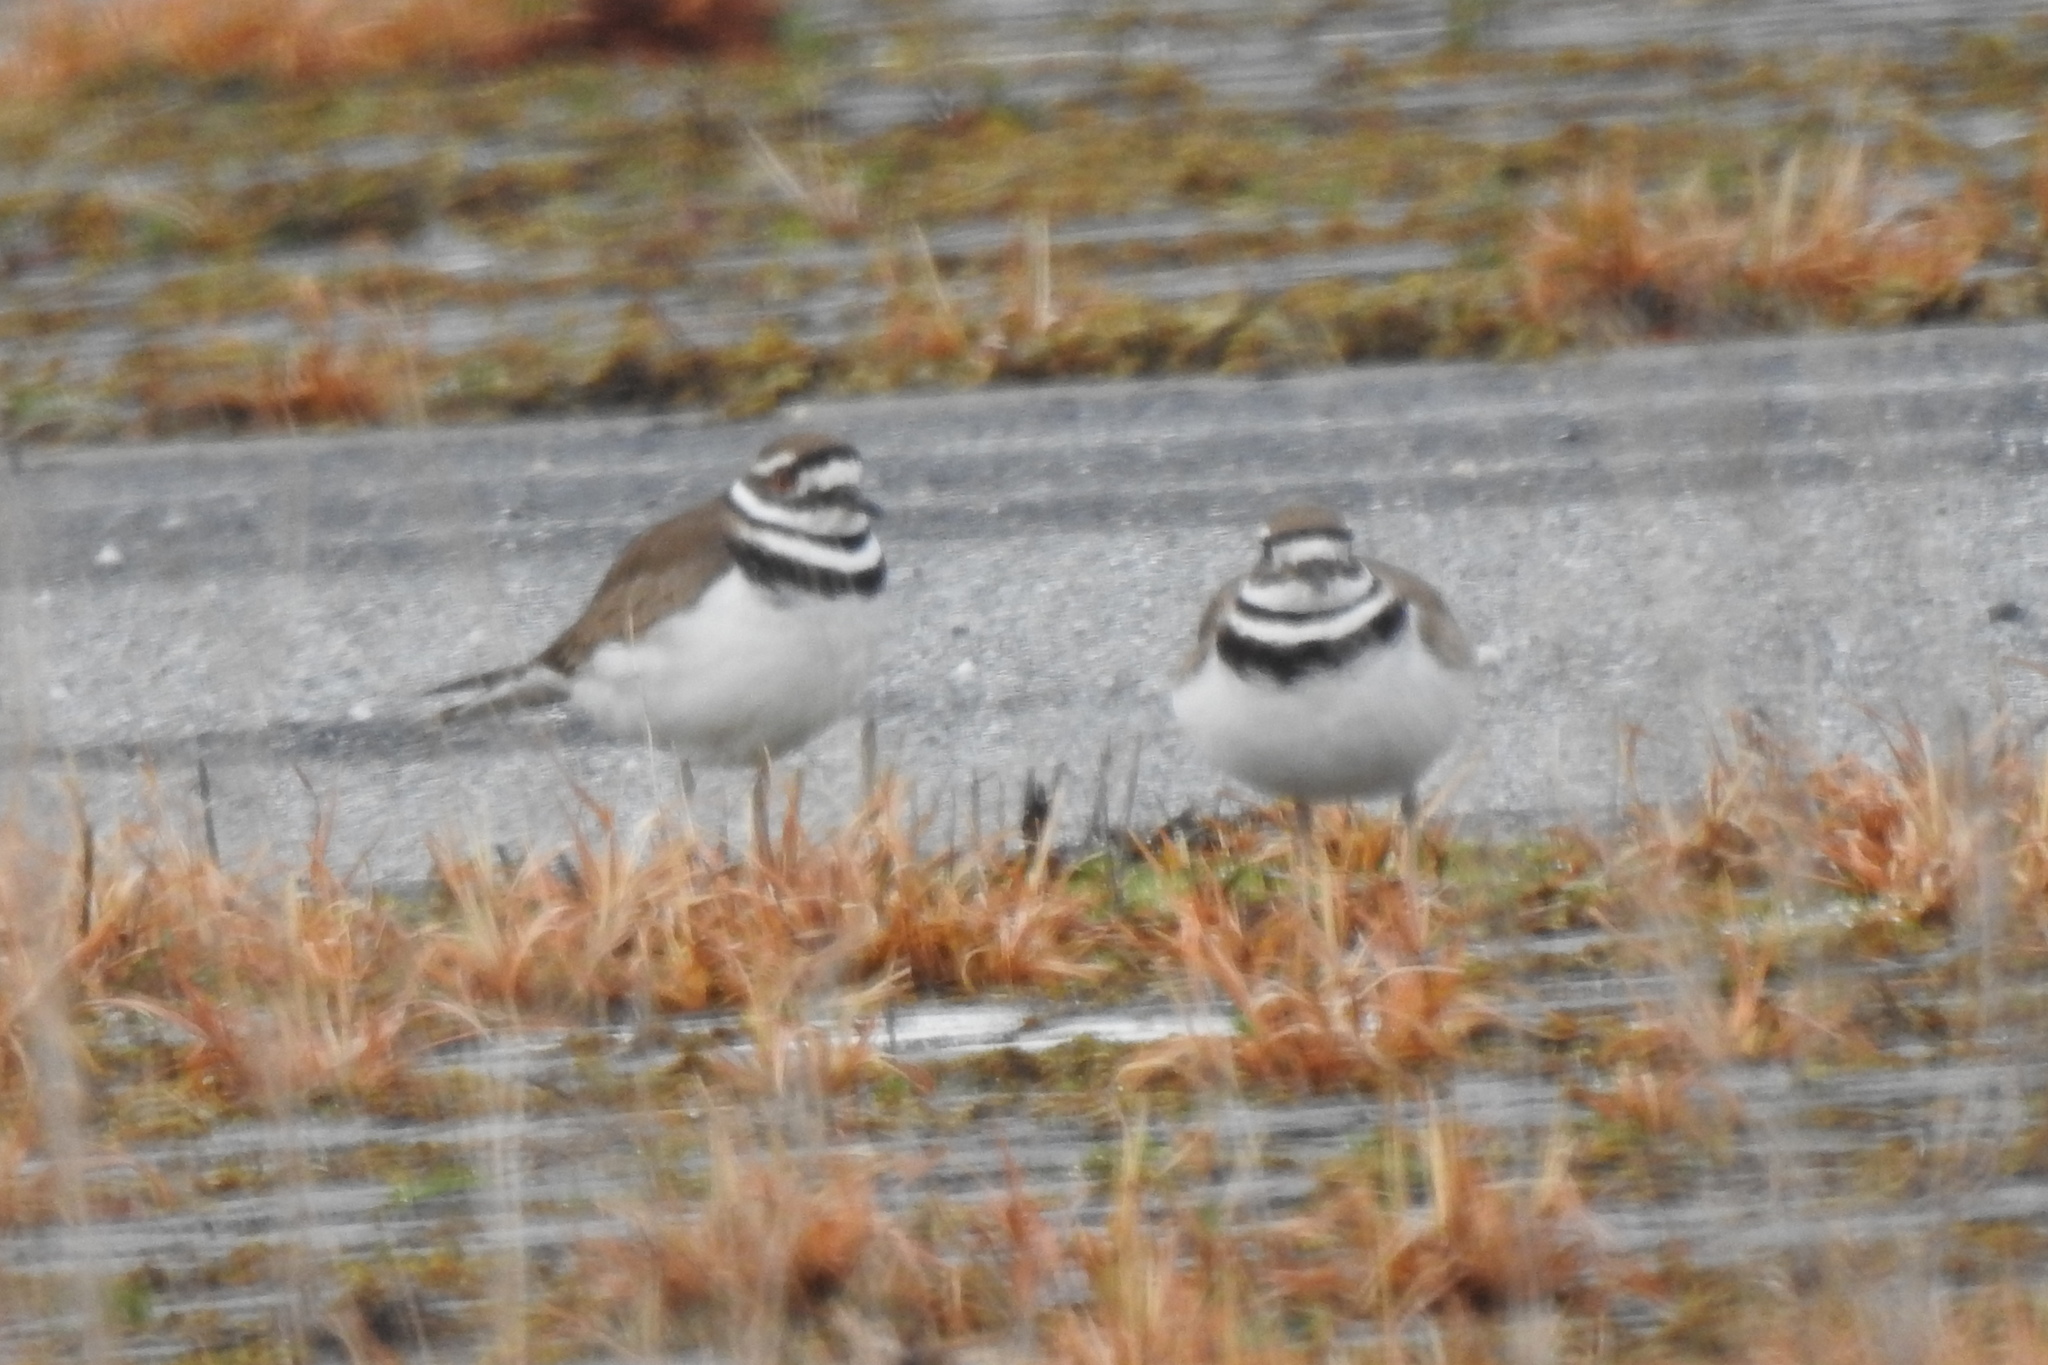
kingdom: Animalia
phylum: Chordata
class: Aves
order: Charadriiformes
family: Charadriidae
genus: Charadrius
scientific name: Charadrius vociferus
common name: Killdeer
